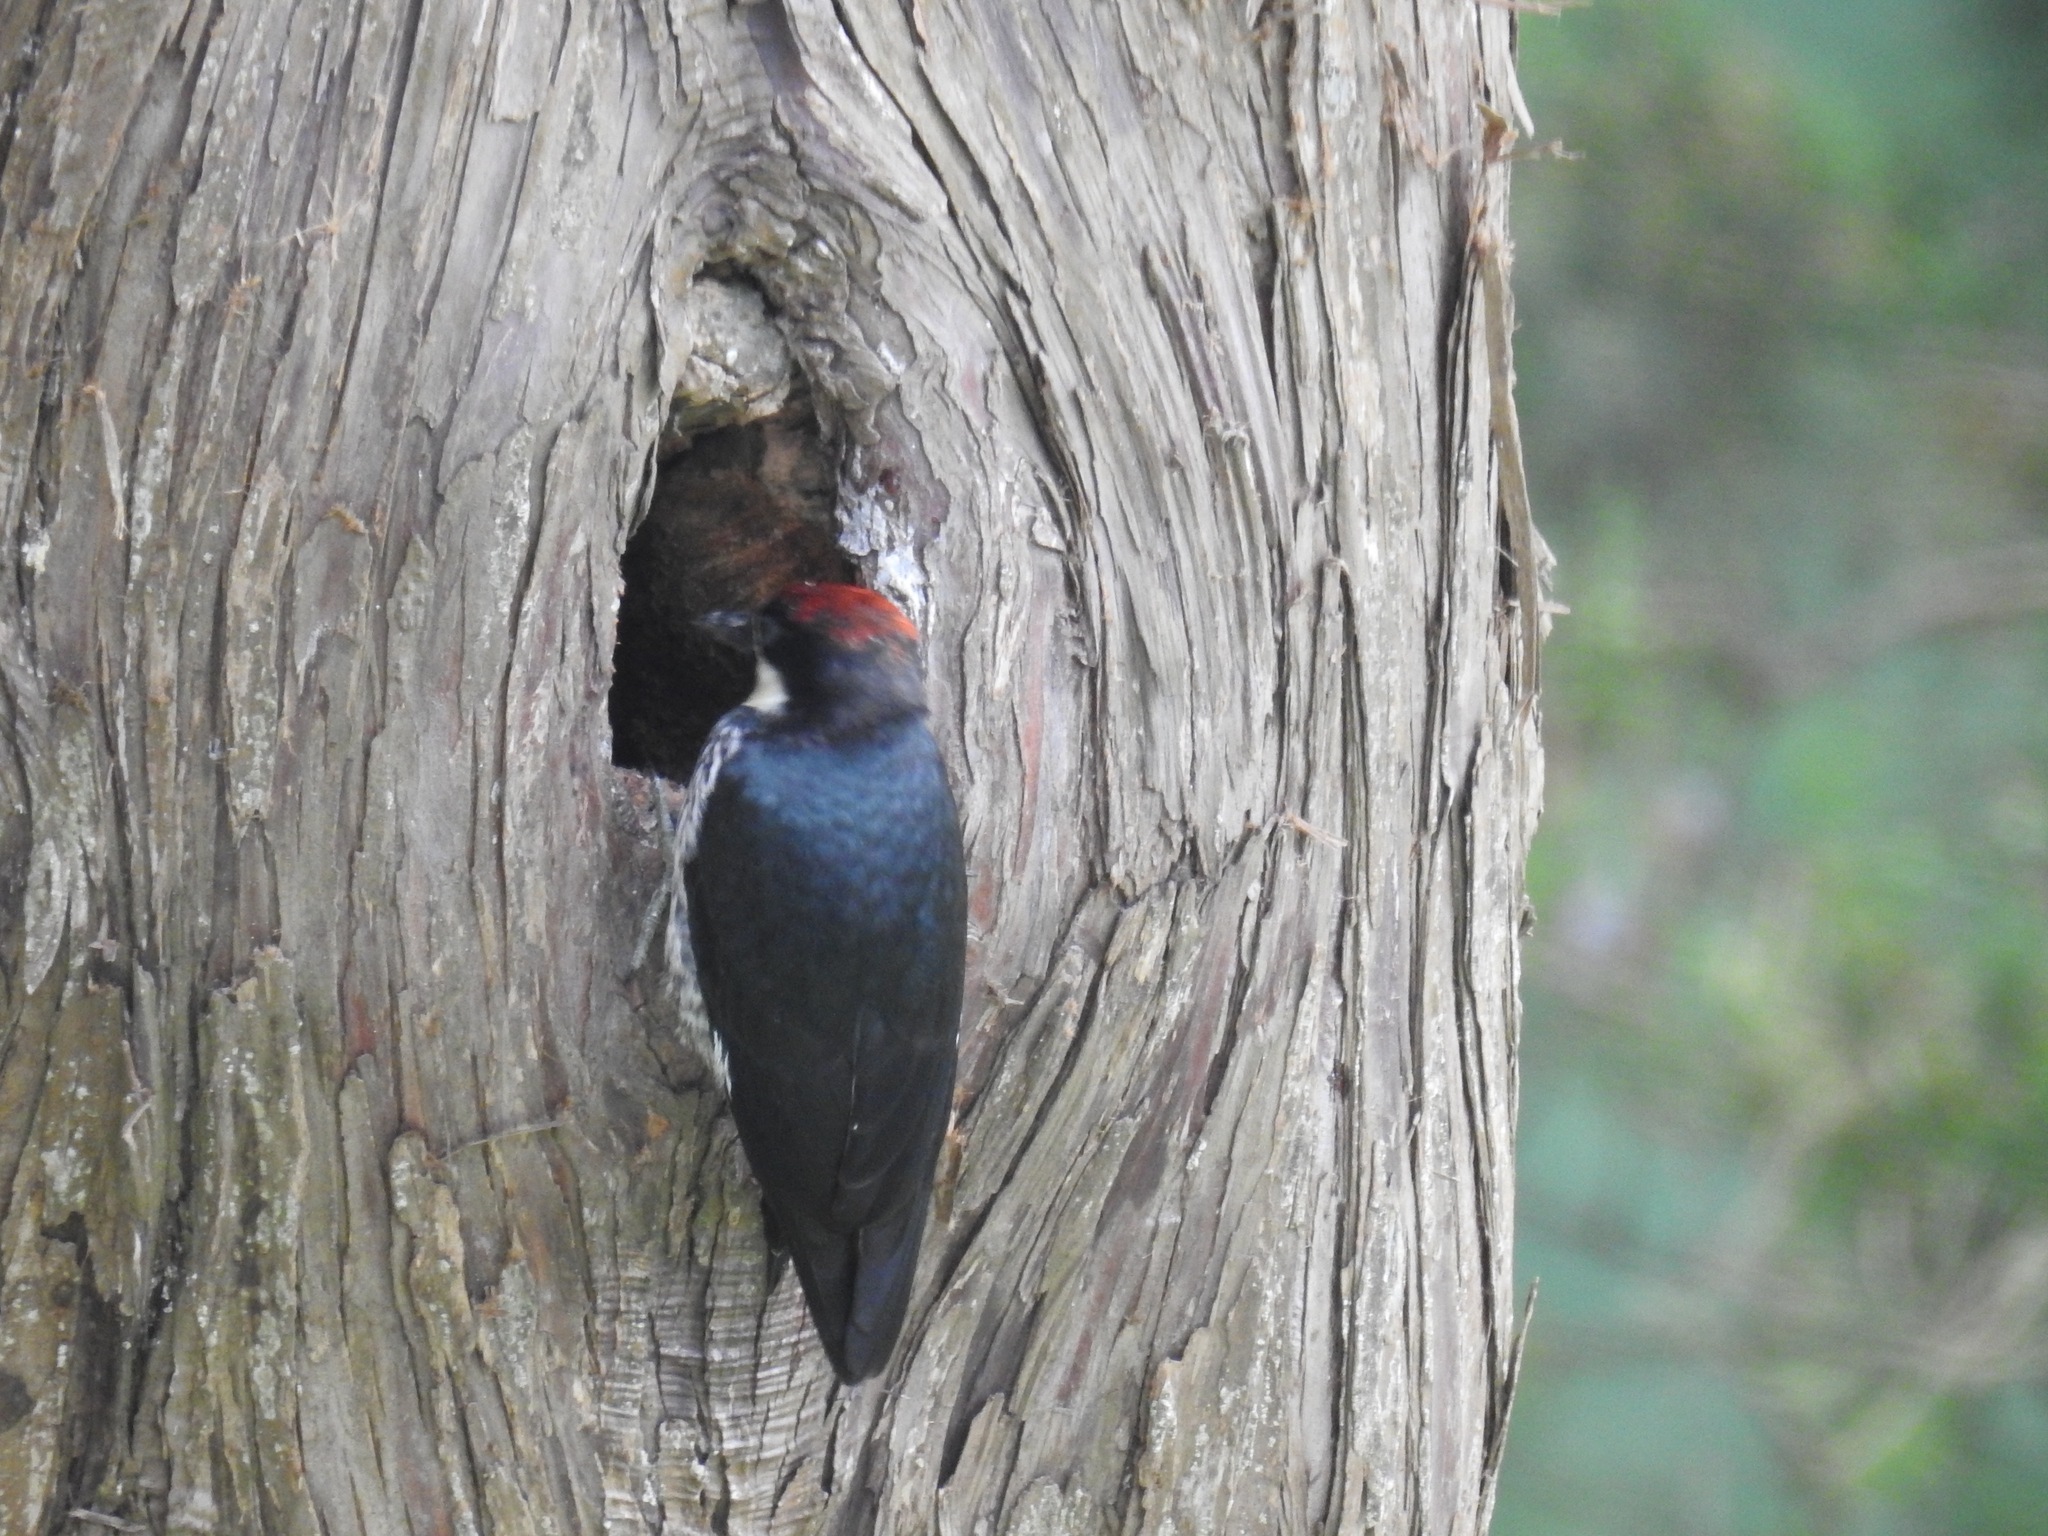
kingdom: Animalia
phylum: Chordata
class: Aves
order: Piciformes
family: Picidae
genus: Melanerpes
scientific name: Melanerpes formicivorus
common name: Acorn woodpecker
